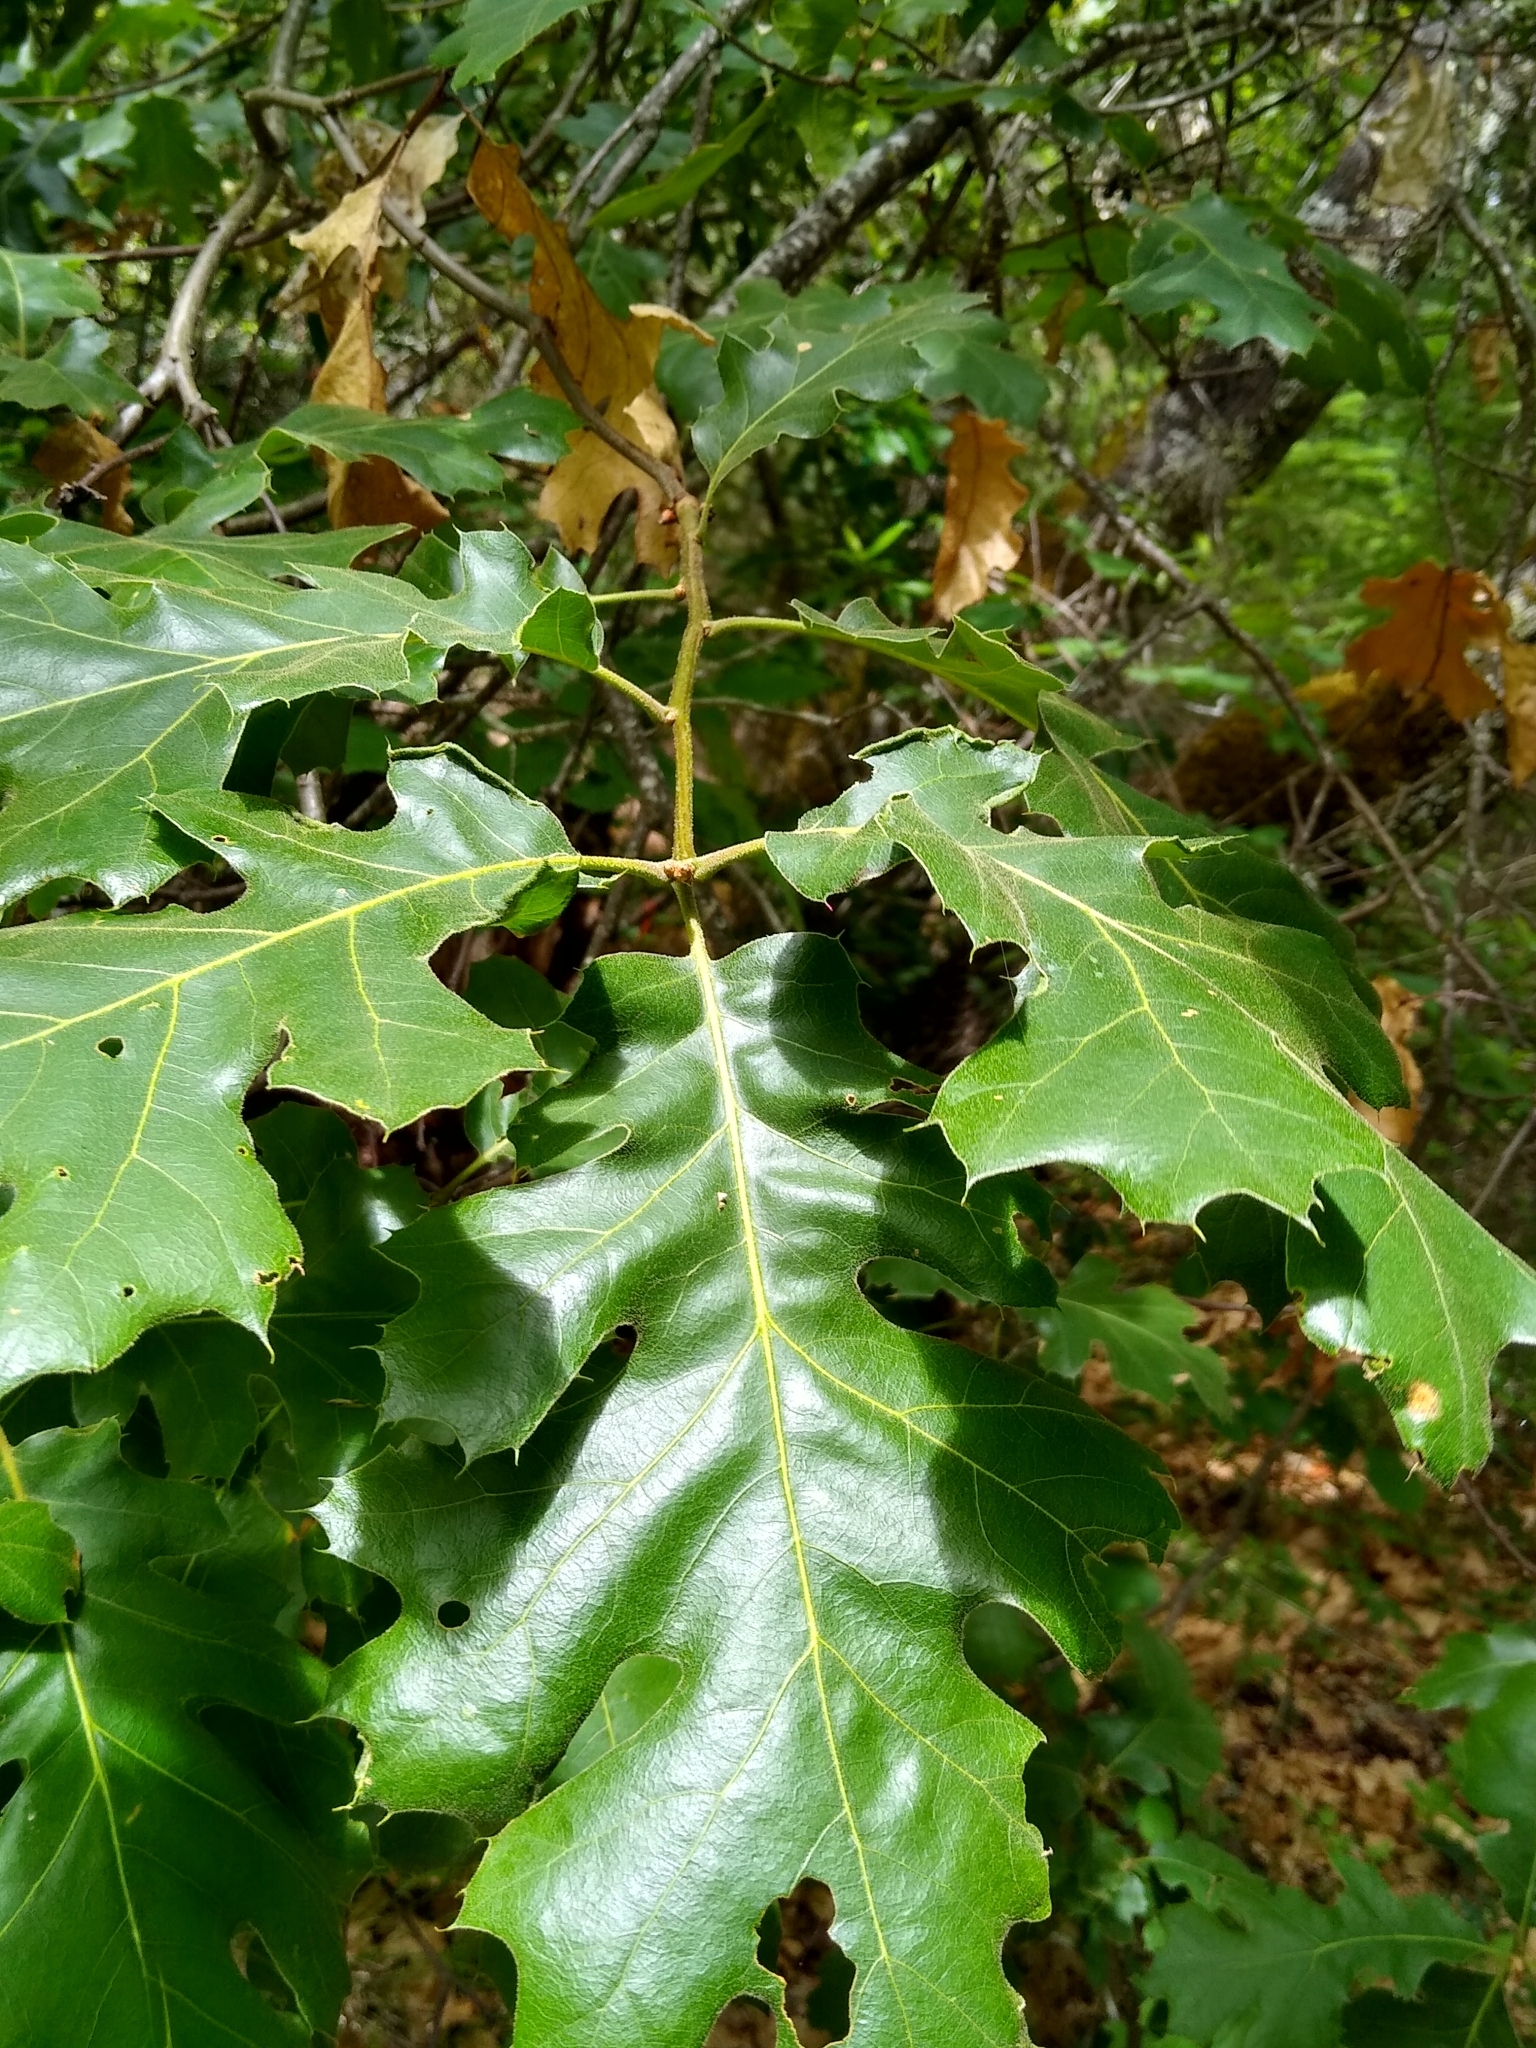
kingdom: Plantae
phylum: Tracheophyta
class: Magnoliopsida
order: Fagales
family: Fagaceae
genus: Quercus
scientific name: Quercus kelloggii
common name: California black oak
